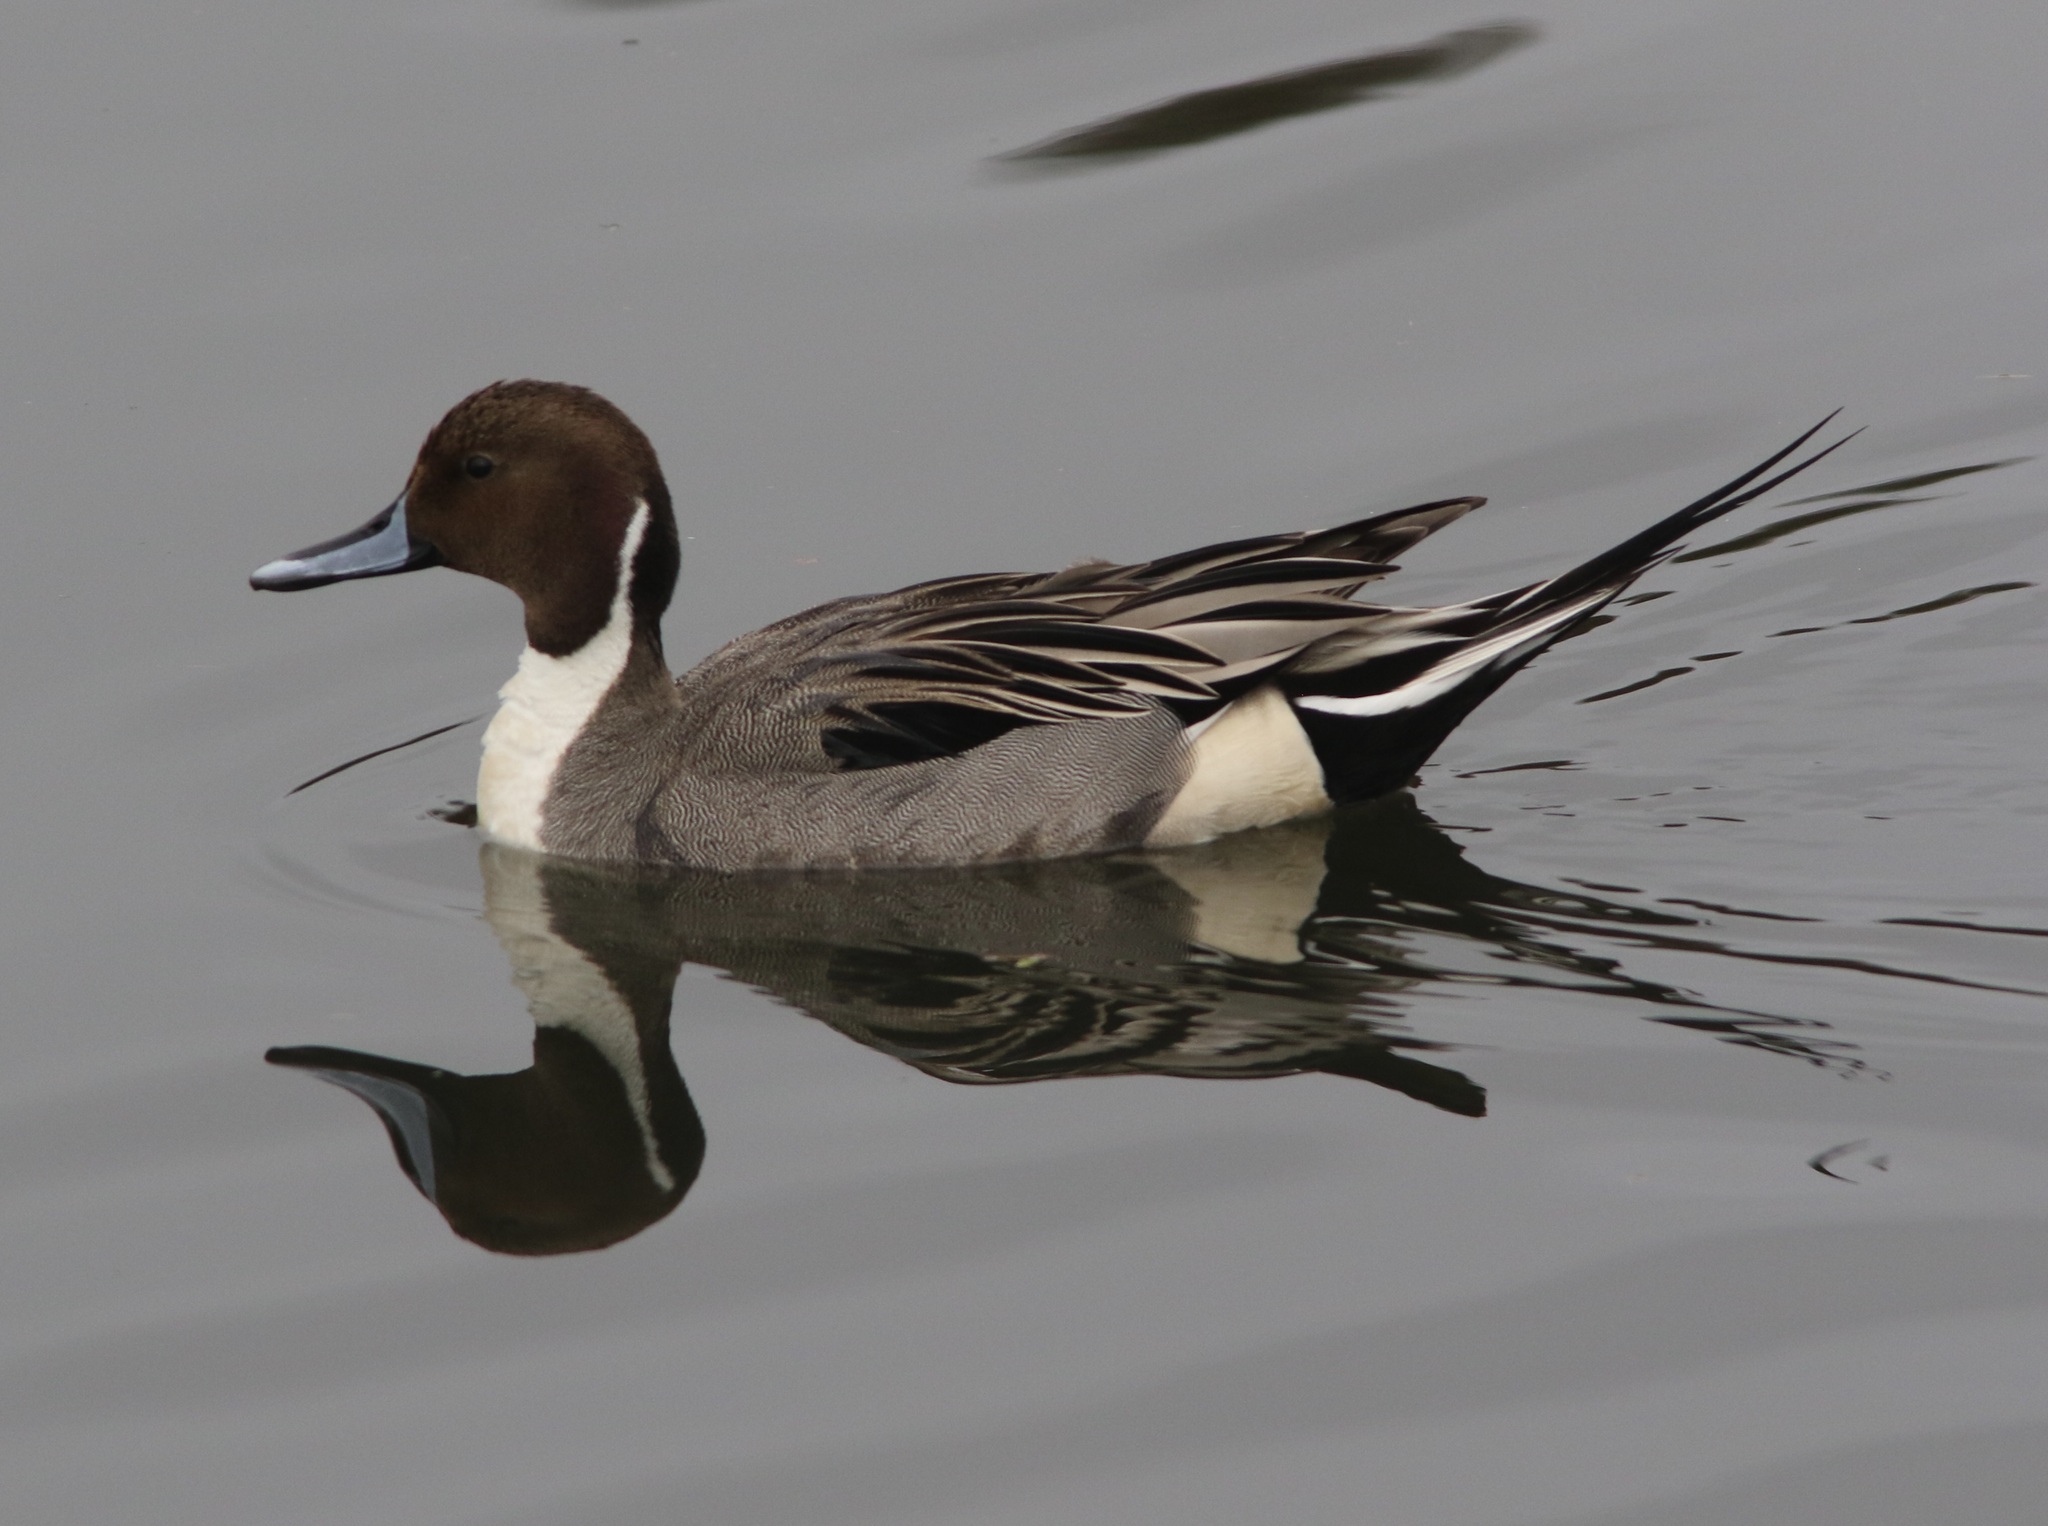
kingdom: Animalia
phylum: Chordata
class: Aves
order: Anseriformes
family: Anatidae
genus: Anas
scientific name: Anas acuta
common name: Northern pintail
